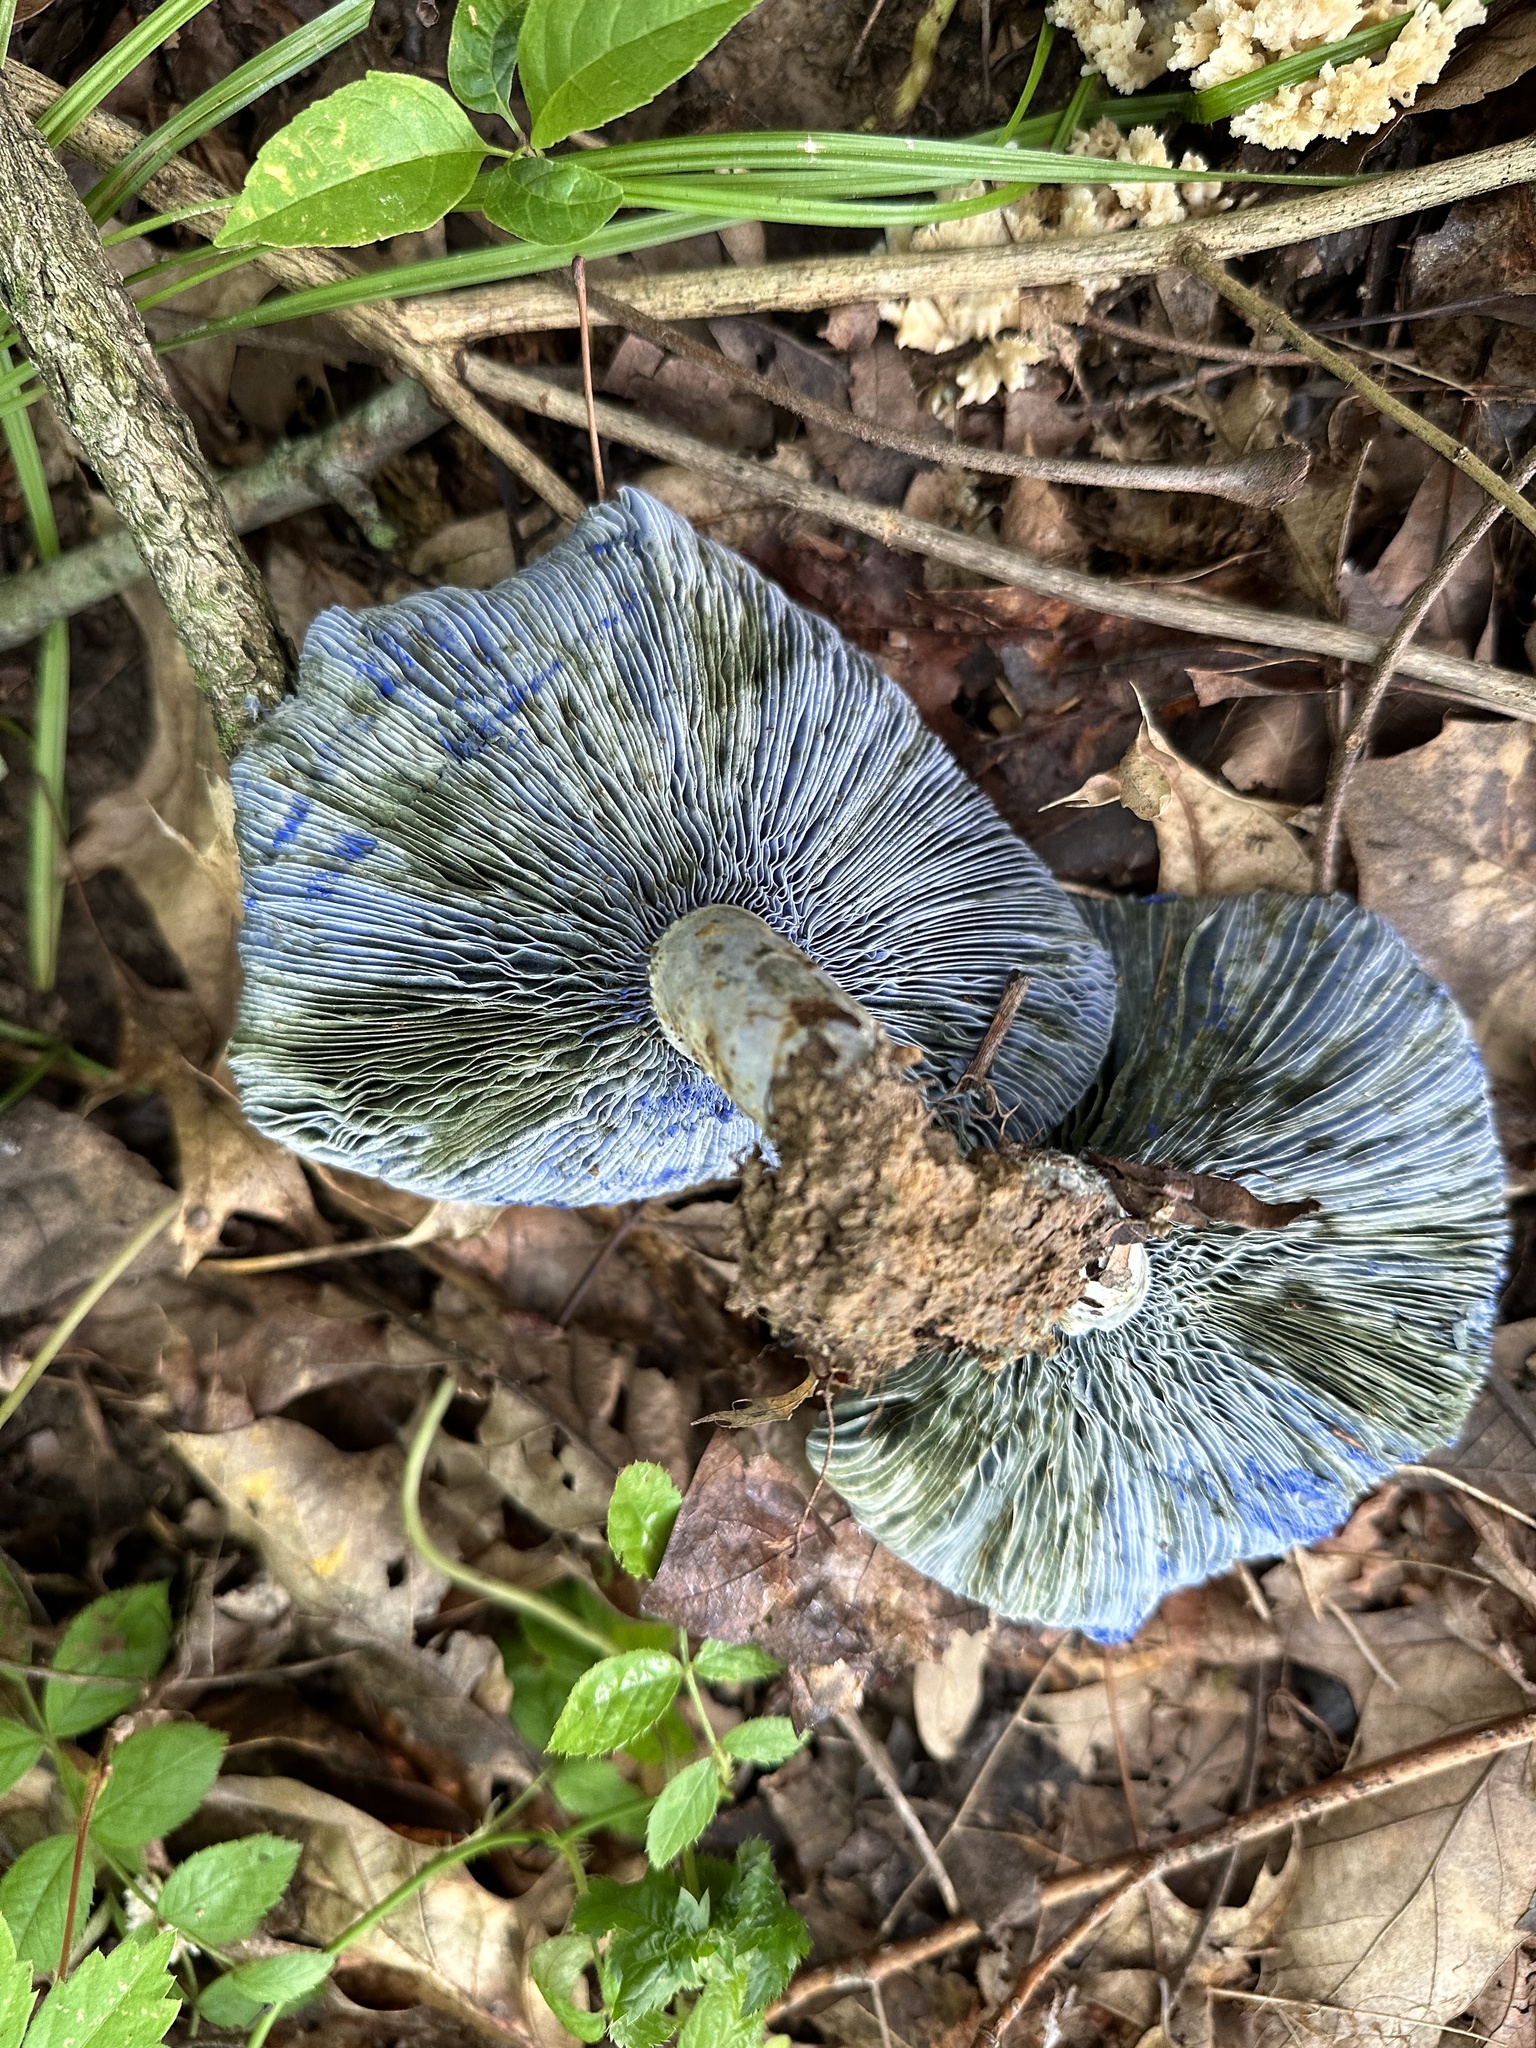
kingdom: Fungi
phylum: Basidiomycota
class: Agaricomycetes
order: Russulales
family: Russulaceae
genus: Lactarius
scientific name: Lactarius indigo
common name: Indigo milk cap
